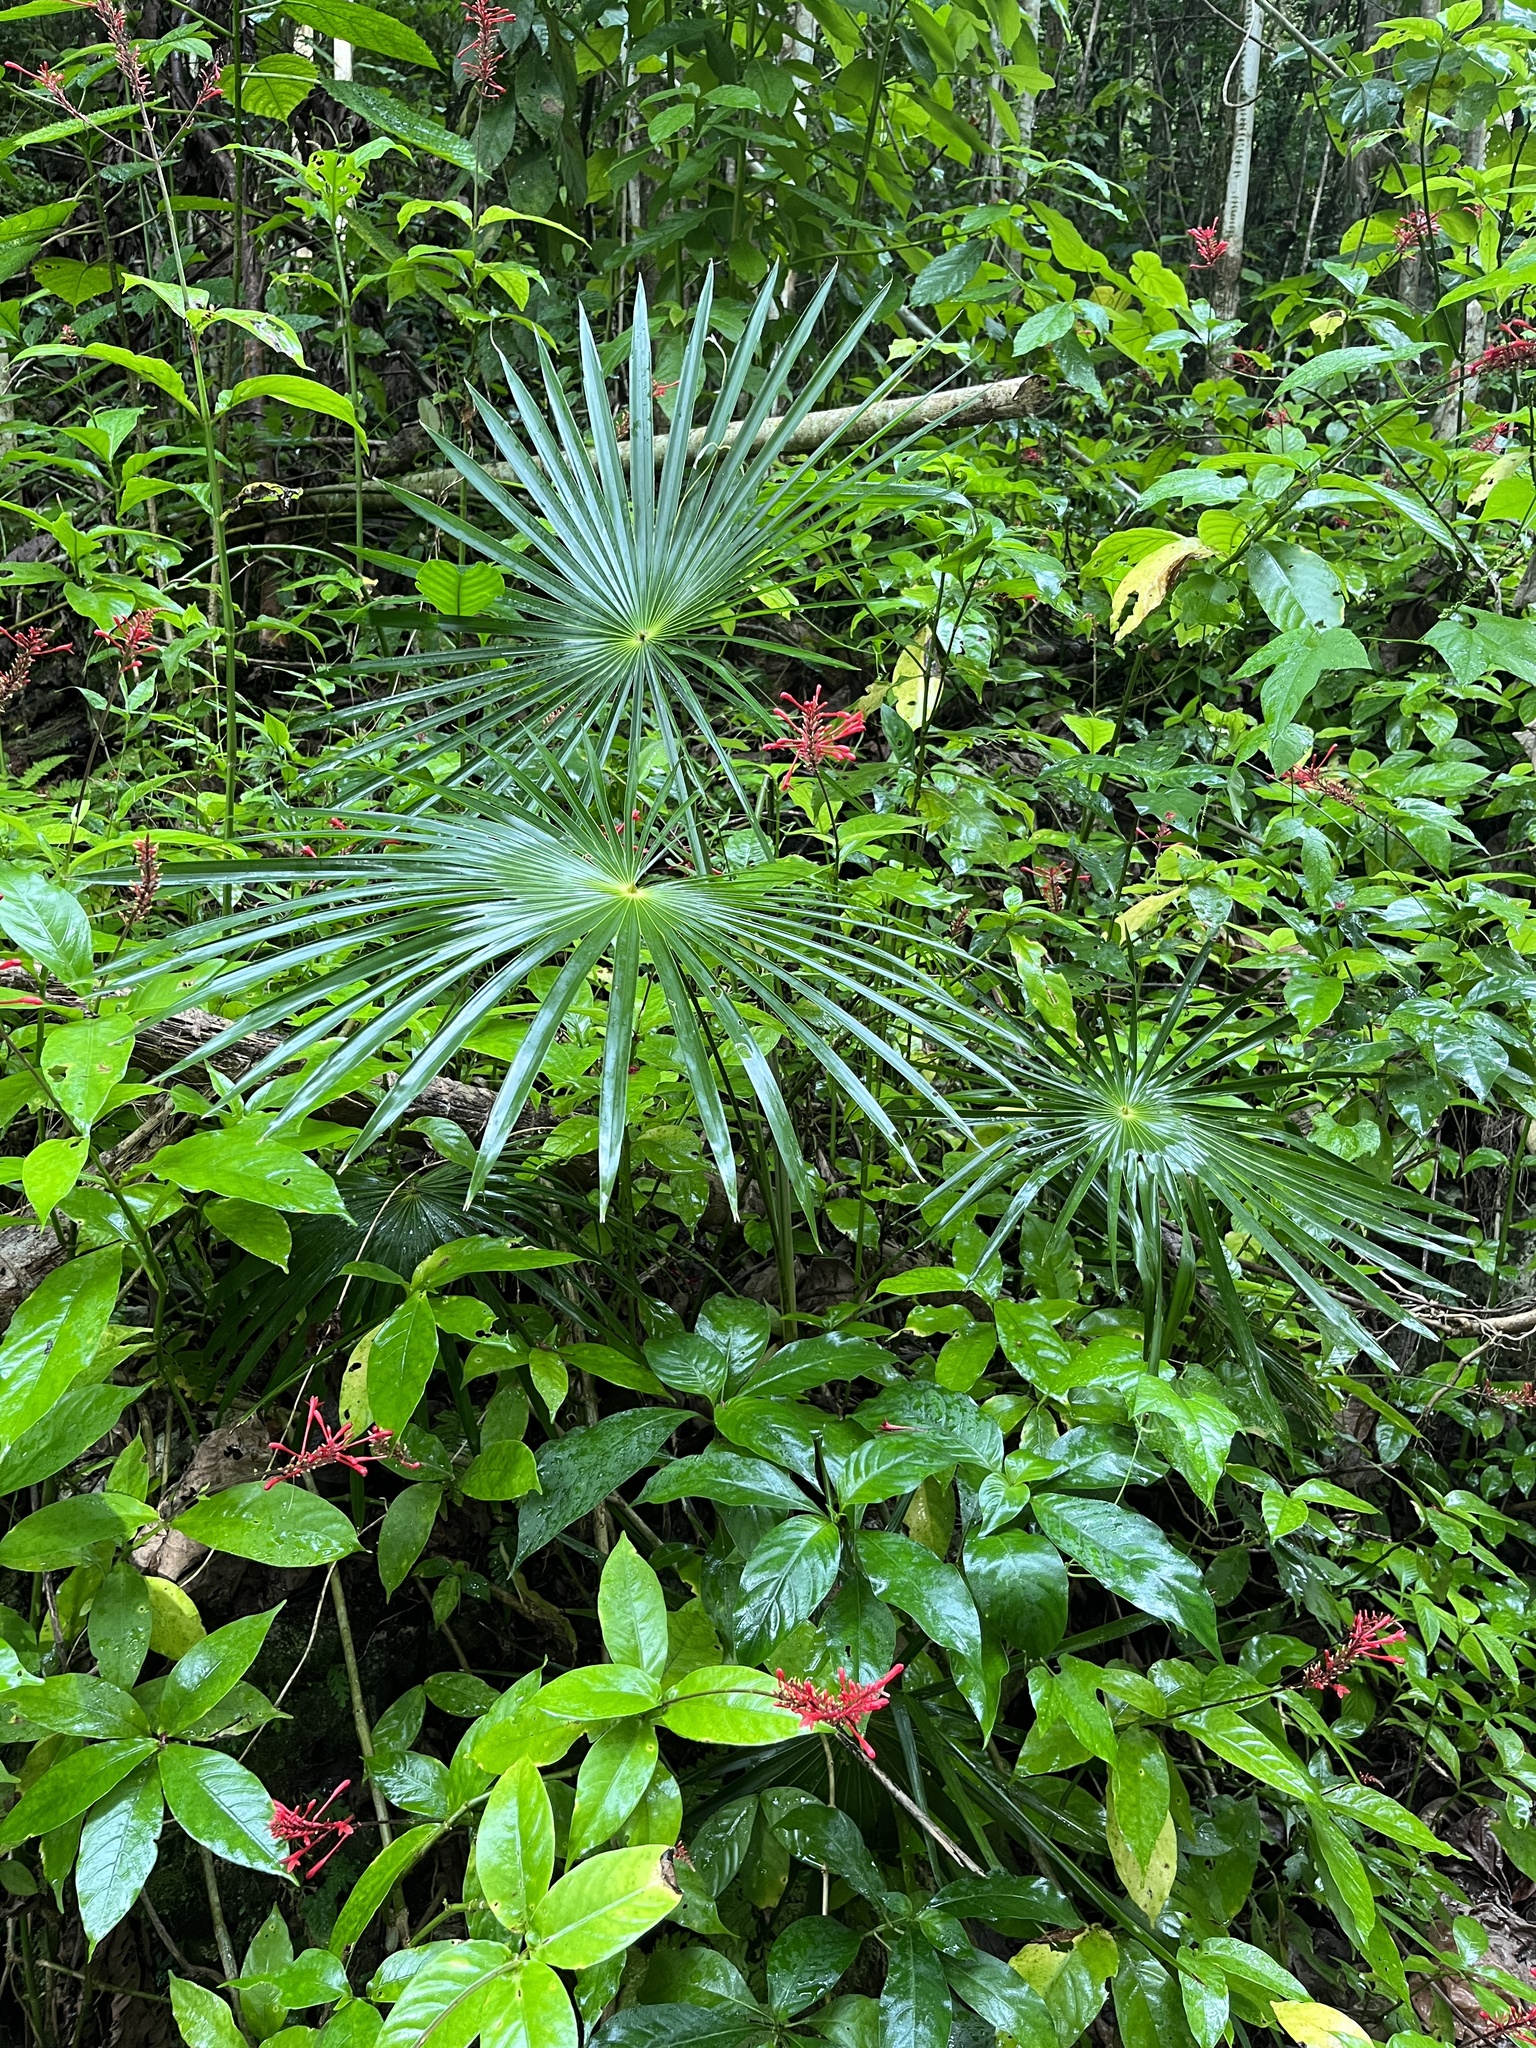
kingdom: Plantae
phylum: Tracheophyta
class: Liliopsida
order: Arecales
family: Arecaceae
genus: Coccothrinax
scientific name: Coccothrinax alta
